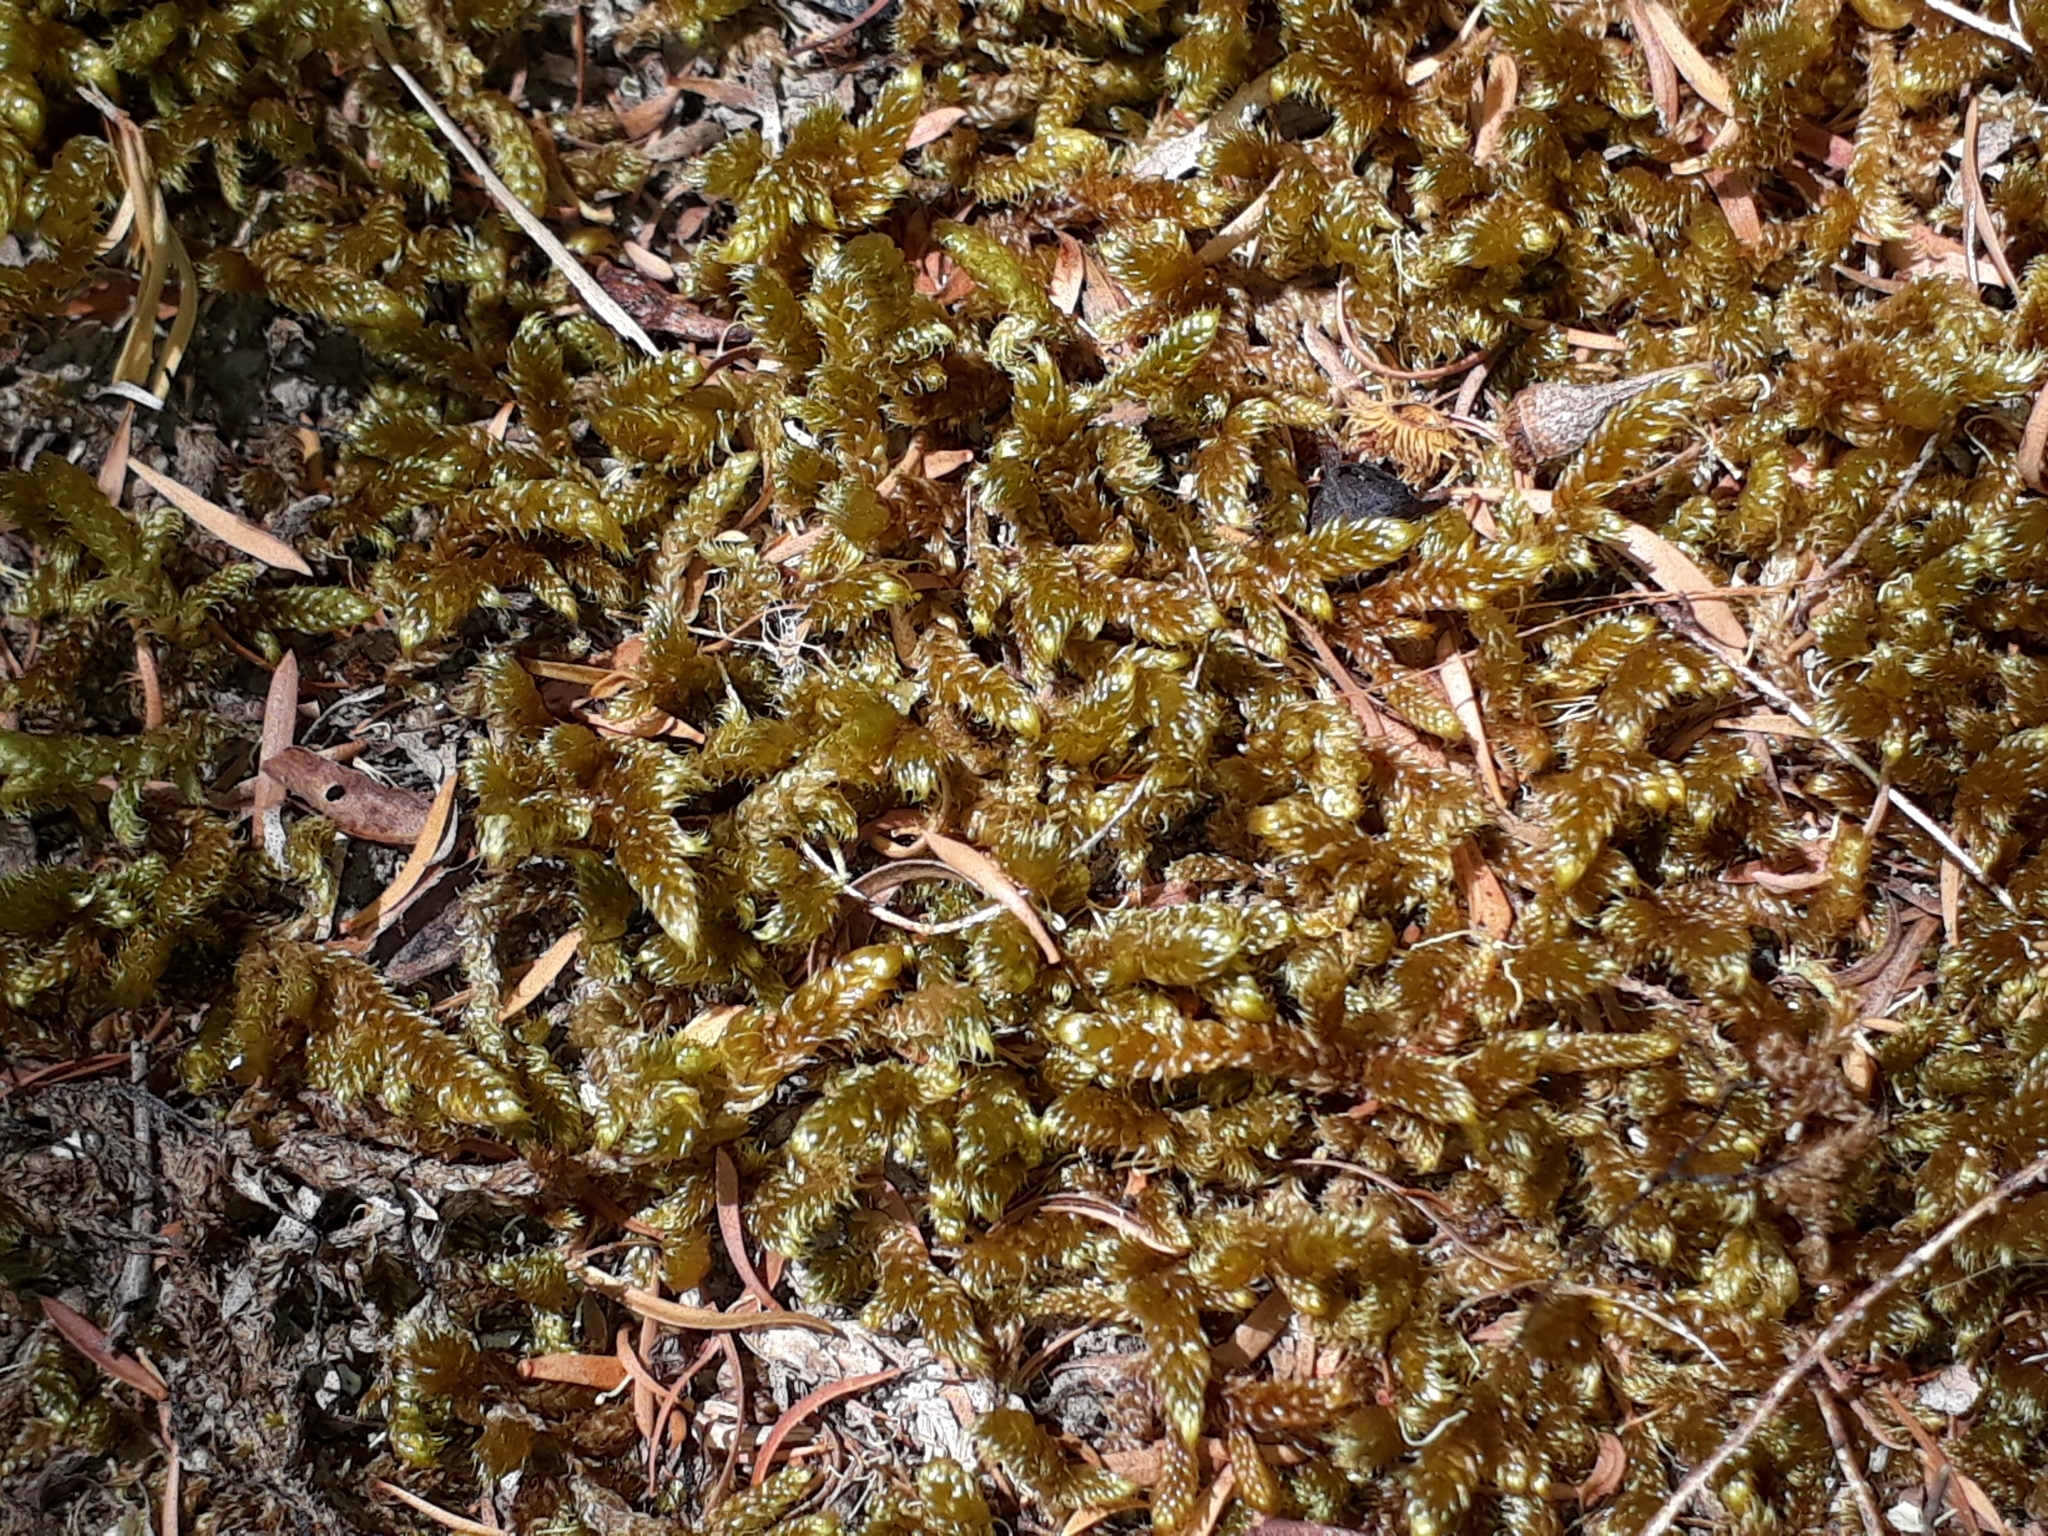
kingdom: Plantae
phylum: Bryophyta
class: Bryopsida
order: Hypnales
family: Hypnaceae
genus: Hypnum
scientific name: Hypnum cupressiforme
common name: Cypress-leaved plait-moss
